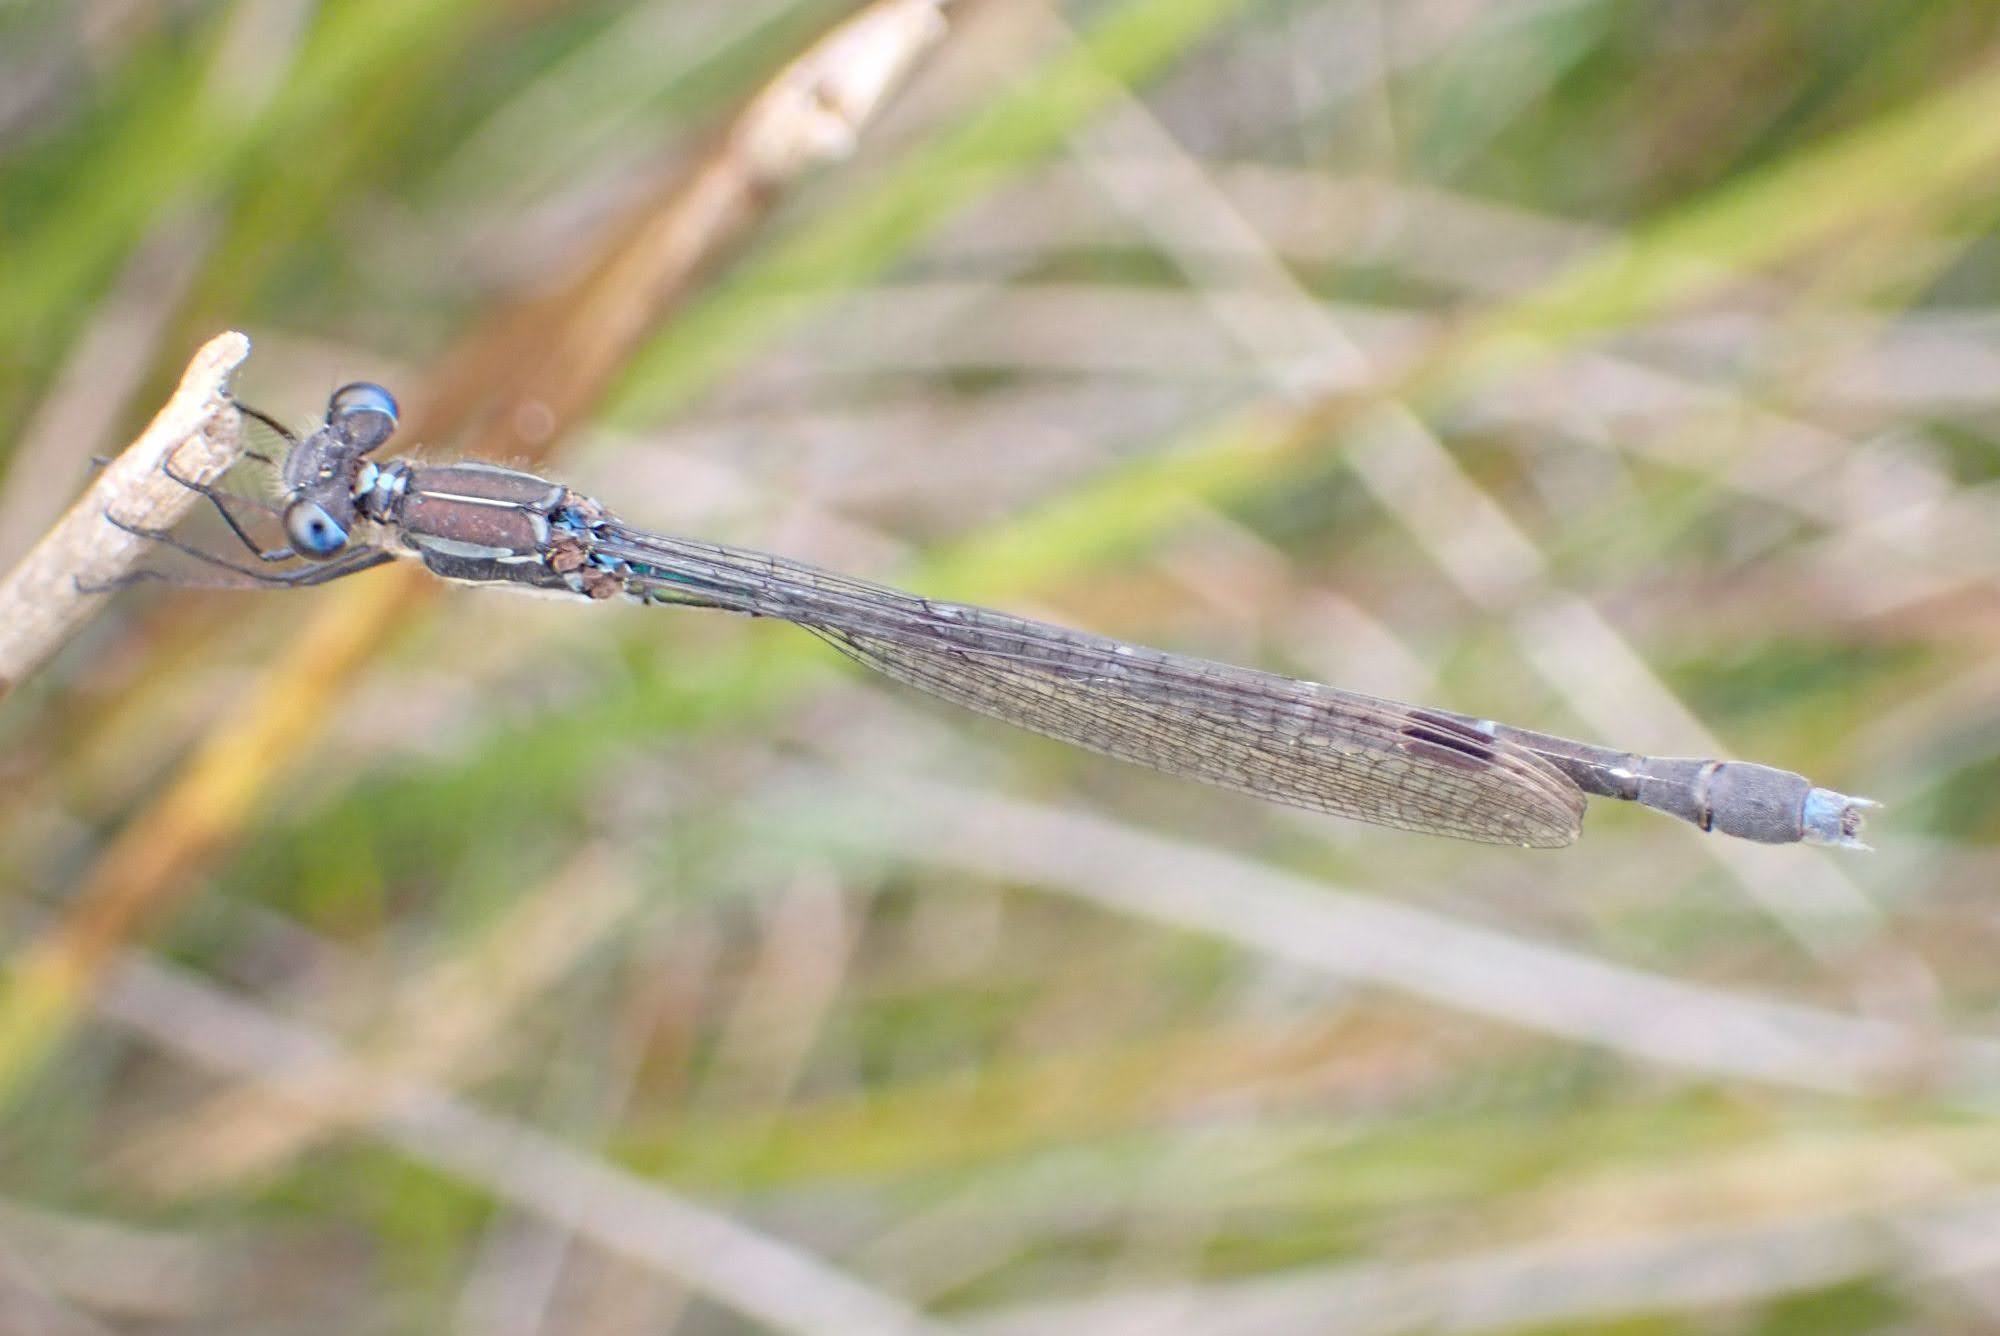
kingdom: Animalia
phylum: Arthropoda
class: Insecta
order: Odonata
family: Lestidae
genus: Austrolestes
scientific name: Austrolestes colensonis
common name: Blue damselfly
